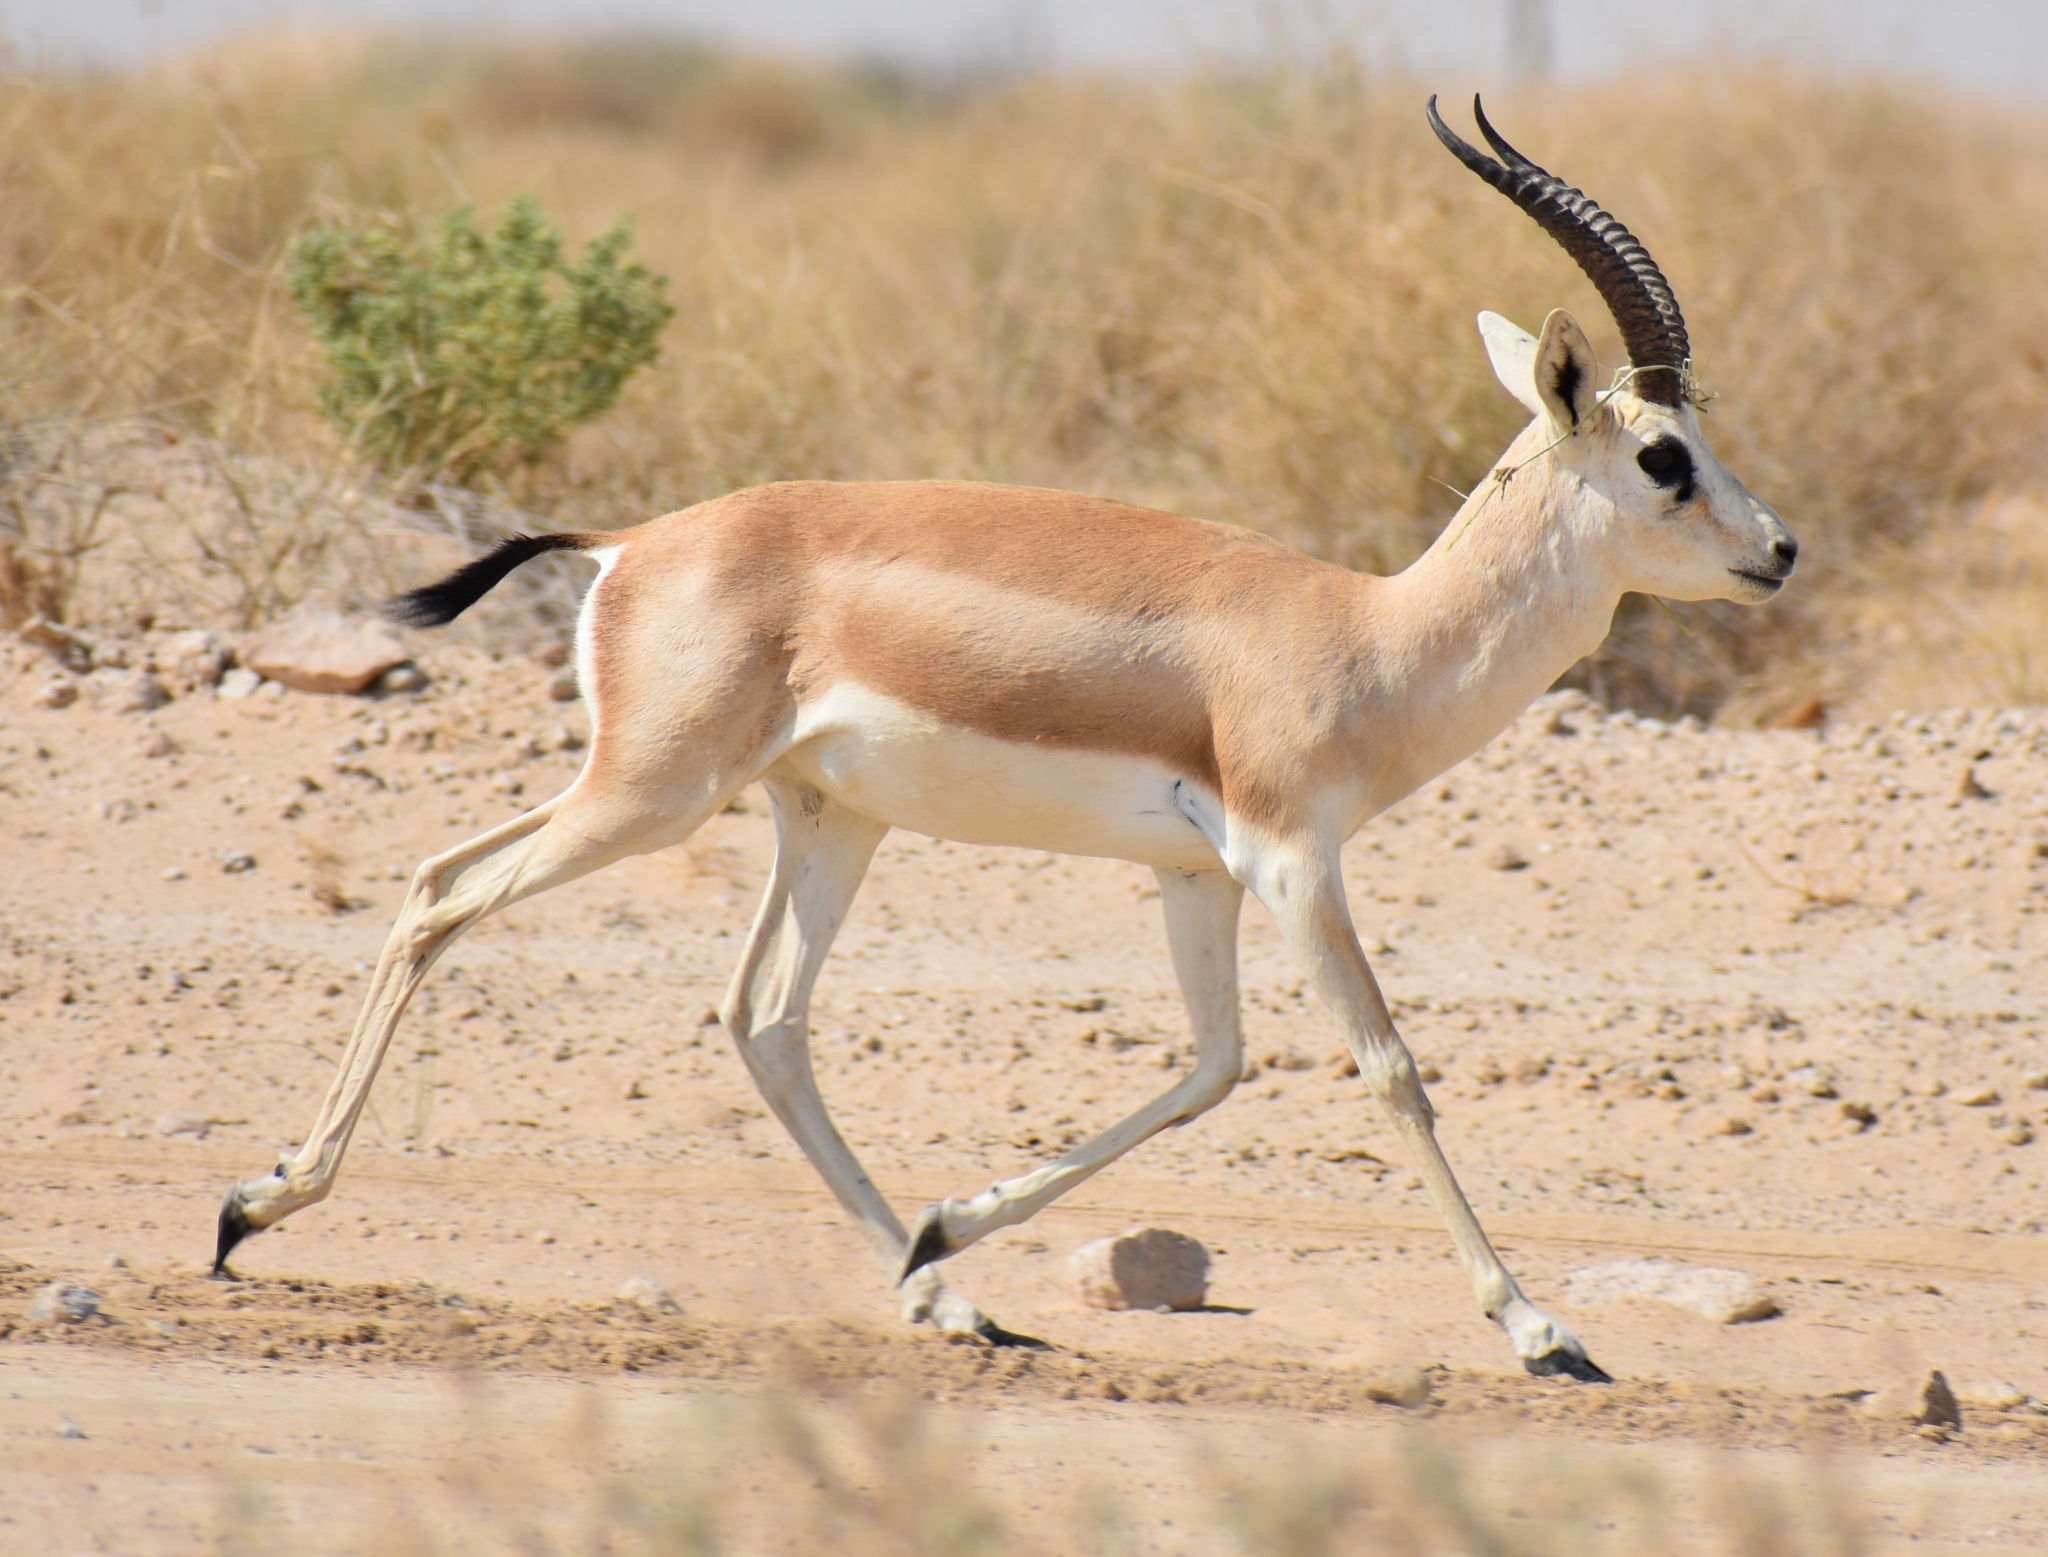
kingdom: Animalia
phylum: Chordata
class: Mammalia
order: Artiodactyla
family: Bovidae
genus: Gazella
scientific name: Gazella marica
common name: Arabian sand gazelle
